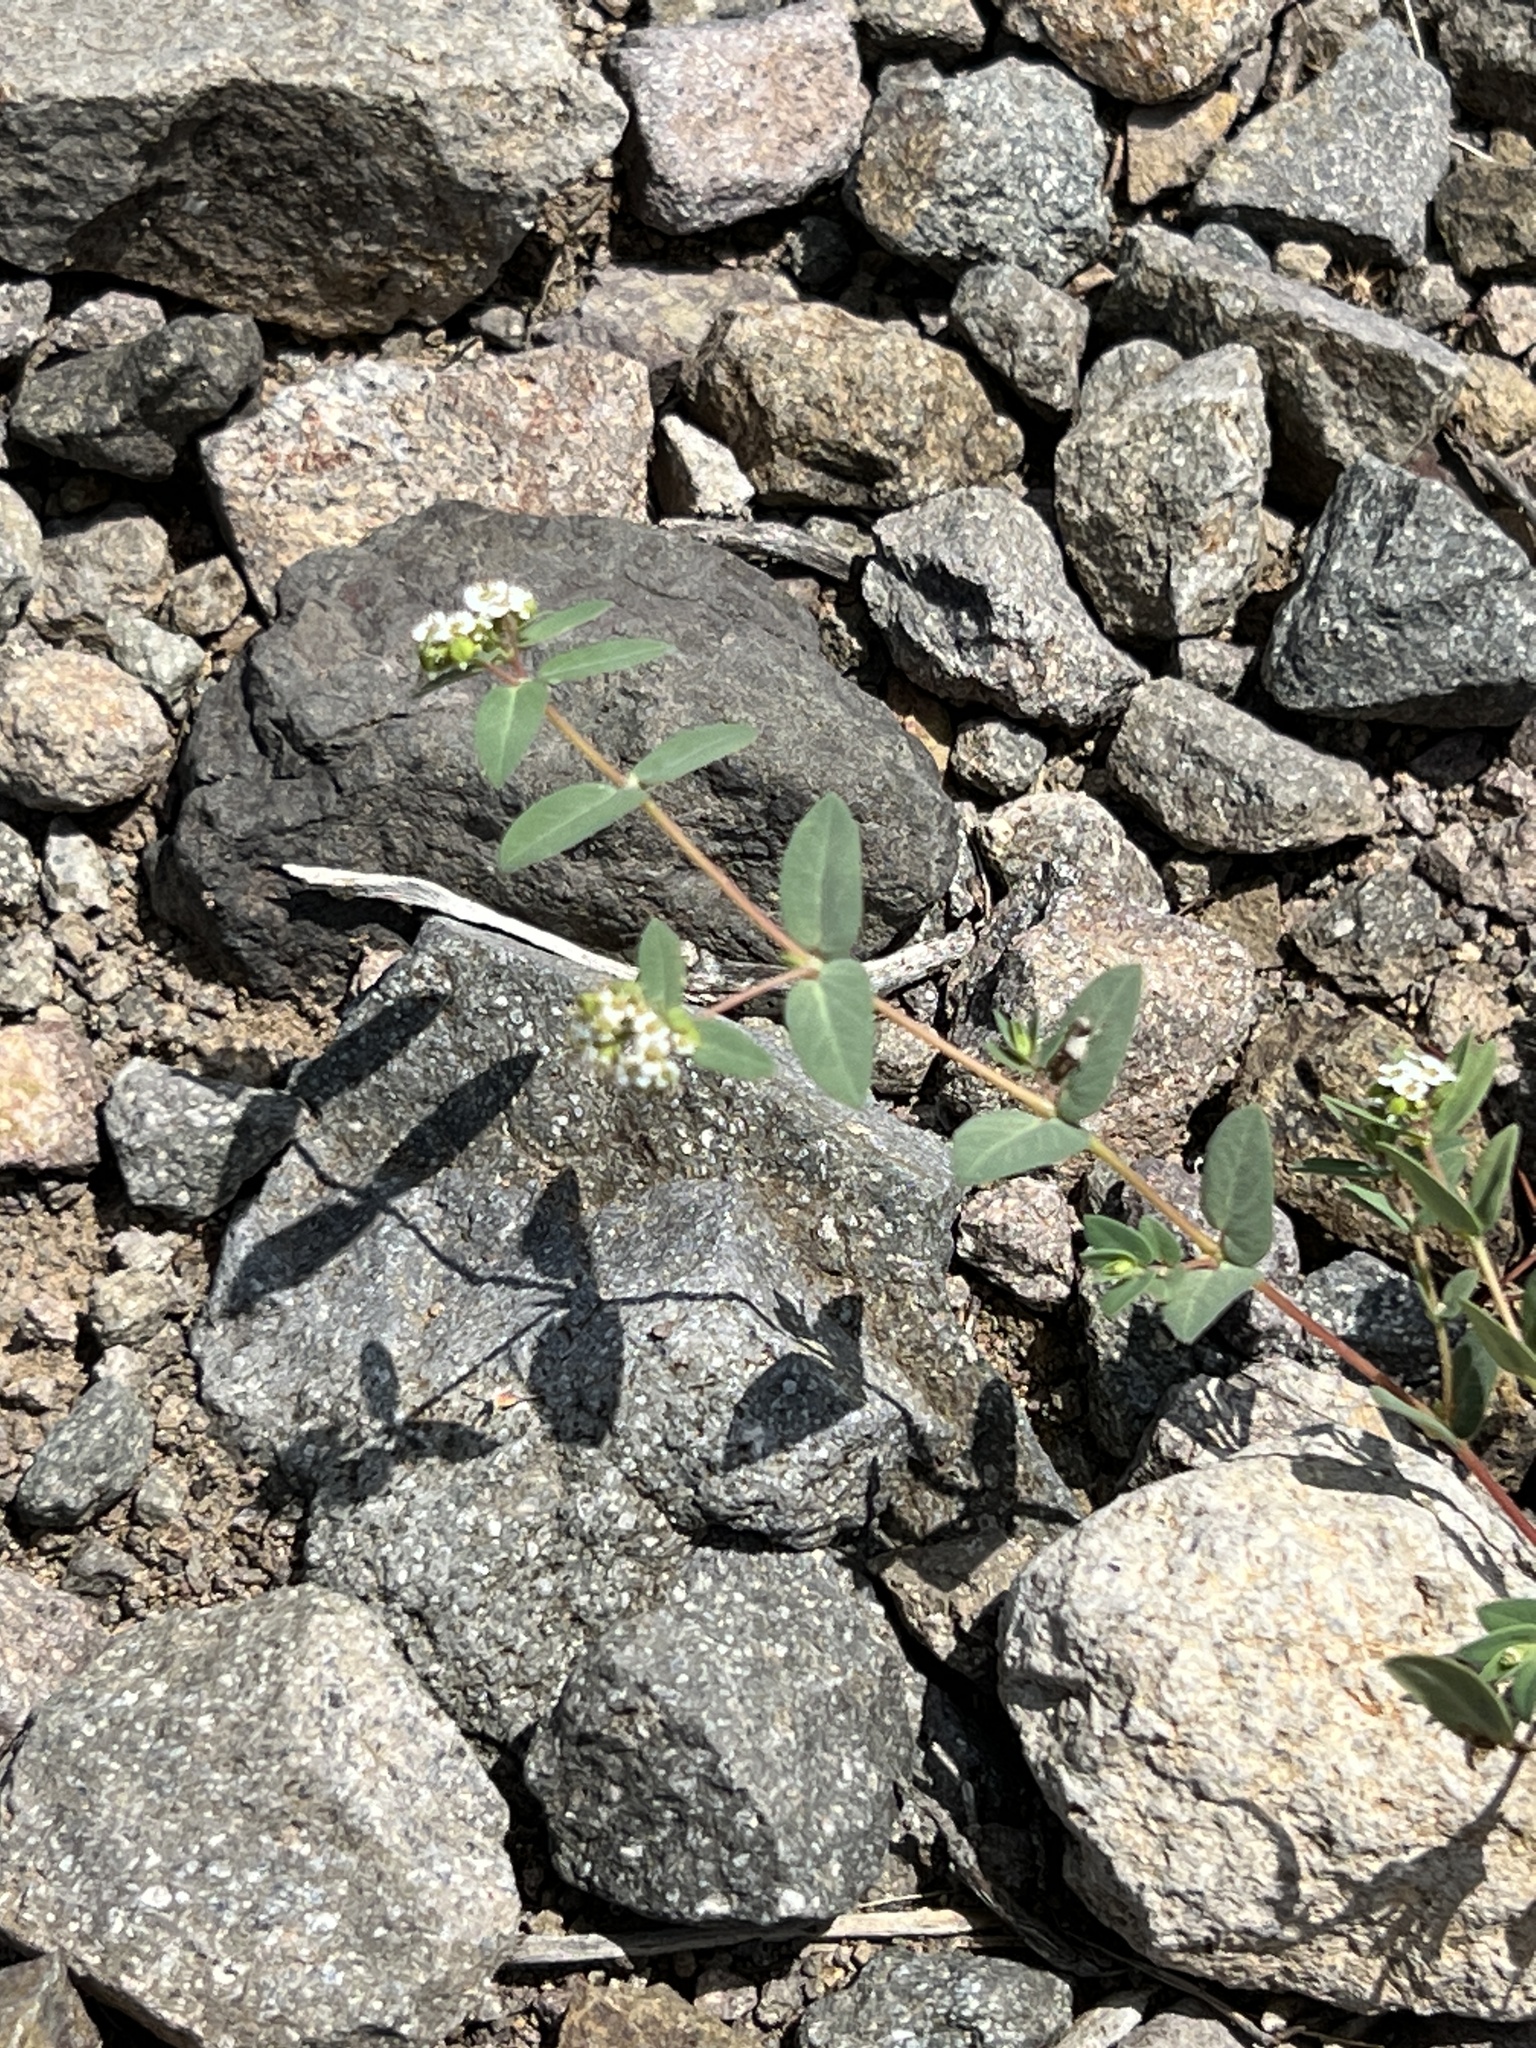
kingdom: Plantae
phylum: Tracheophyta
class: Magnoliopsida
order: Malpighiales
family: Euphorbiaceae
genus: Euphorbia
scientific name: Euphorbia capitellata
